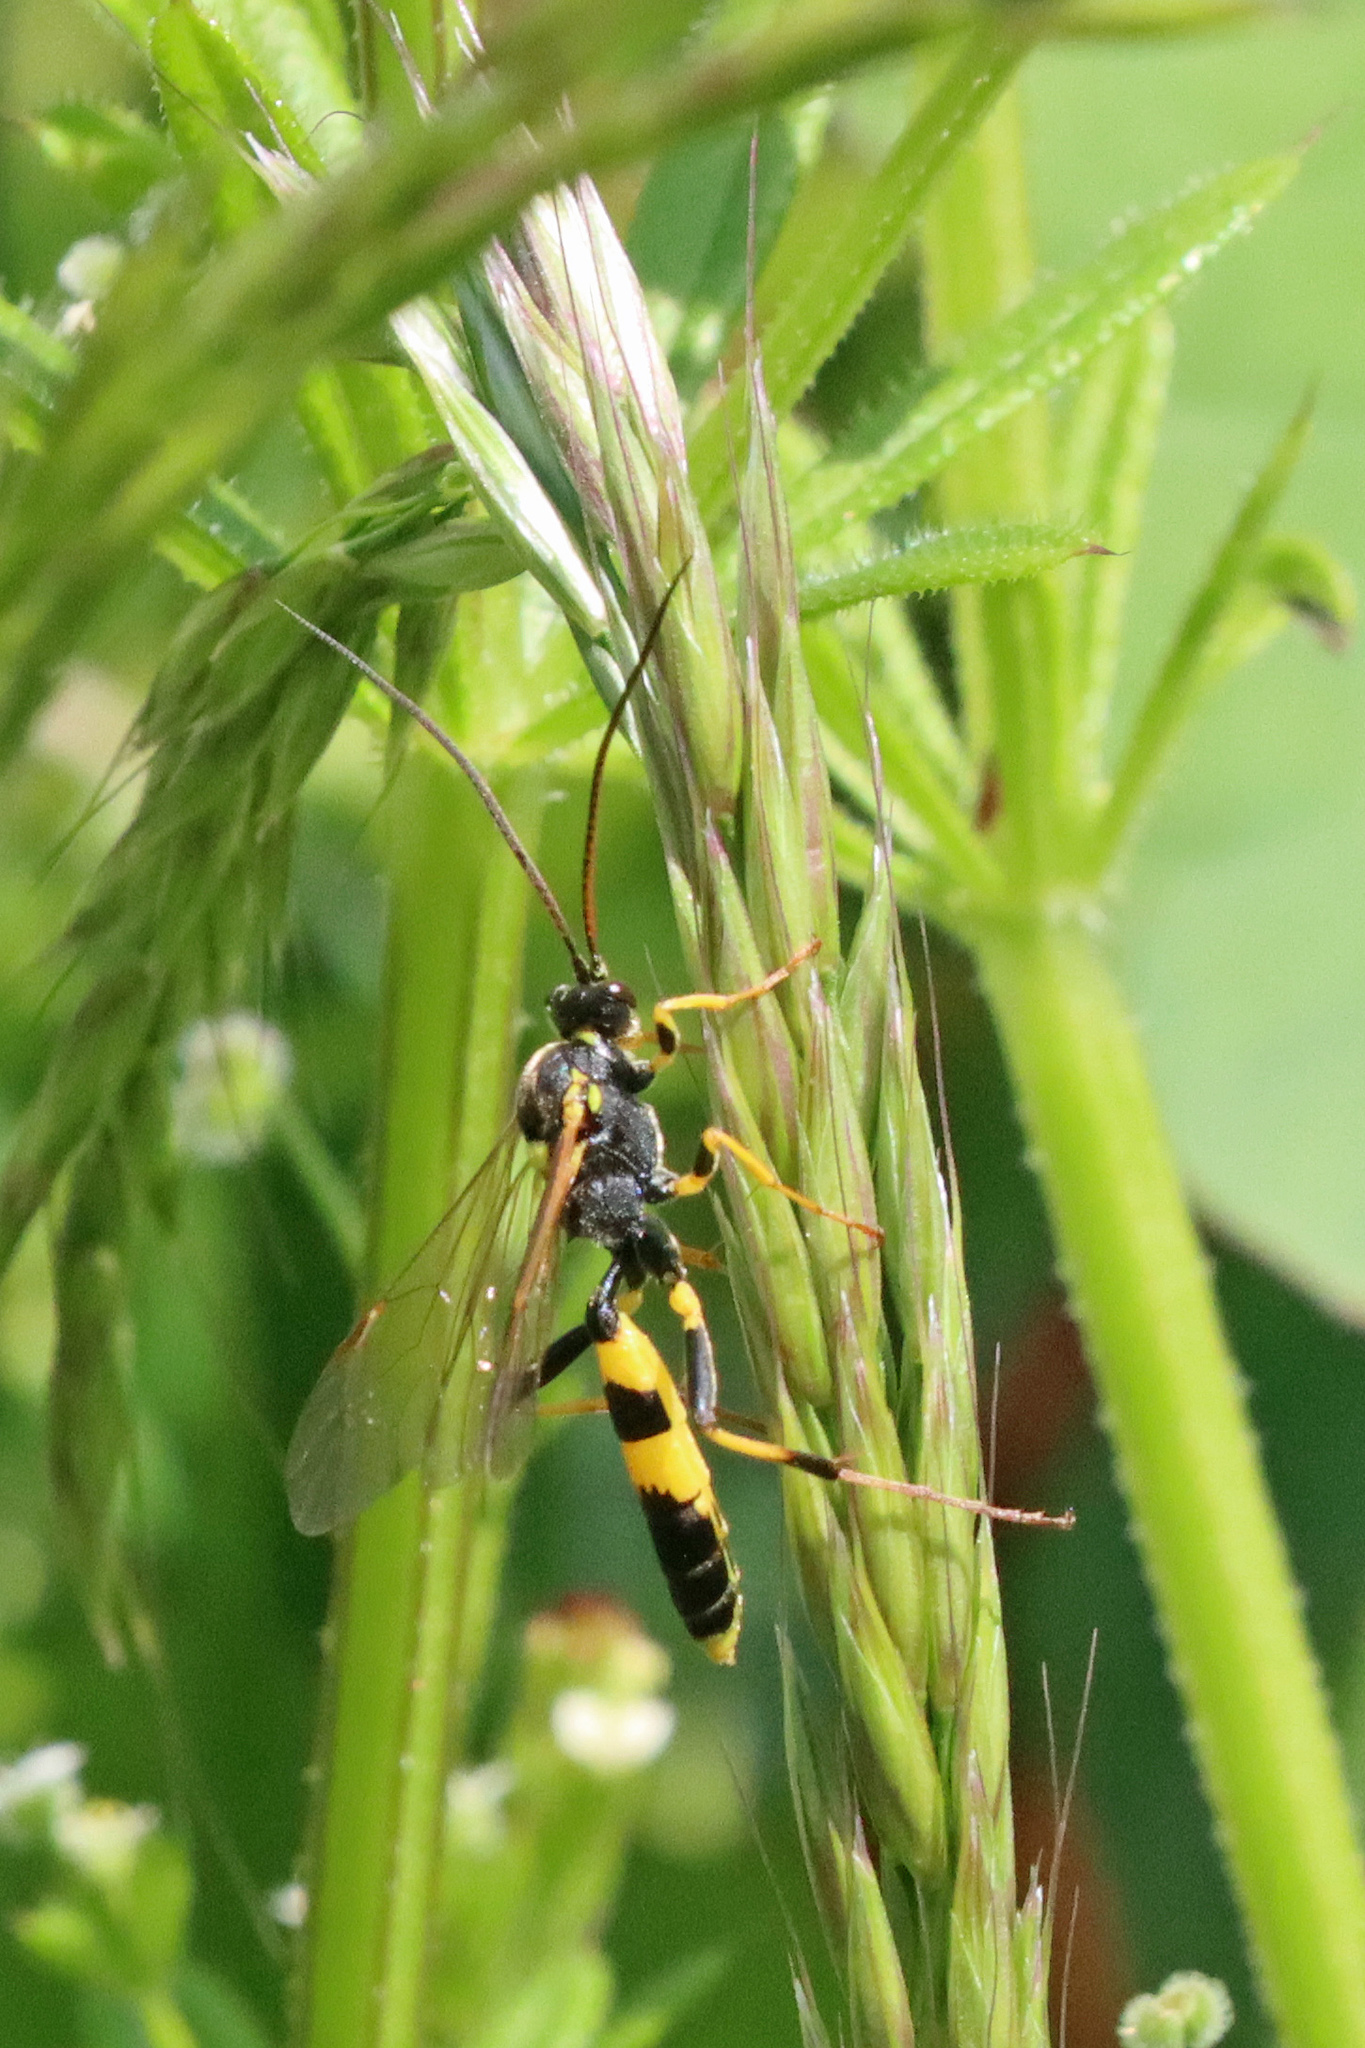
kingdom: Animalia
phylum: Arthropoda
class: Insecta
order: Hymenoptera
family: Ichneumonidae
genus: Amblyteles
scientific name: Amblyteles armatorius
